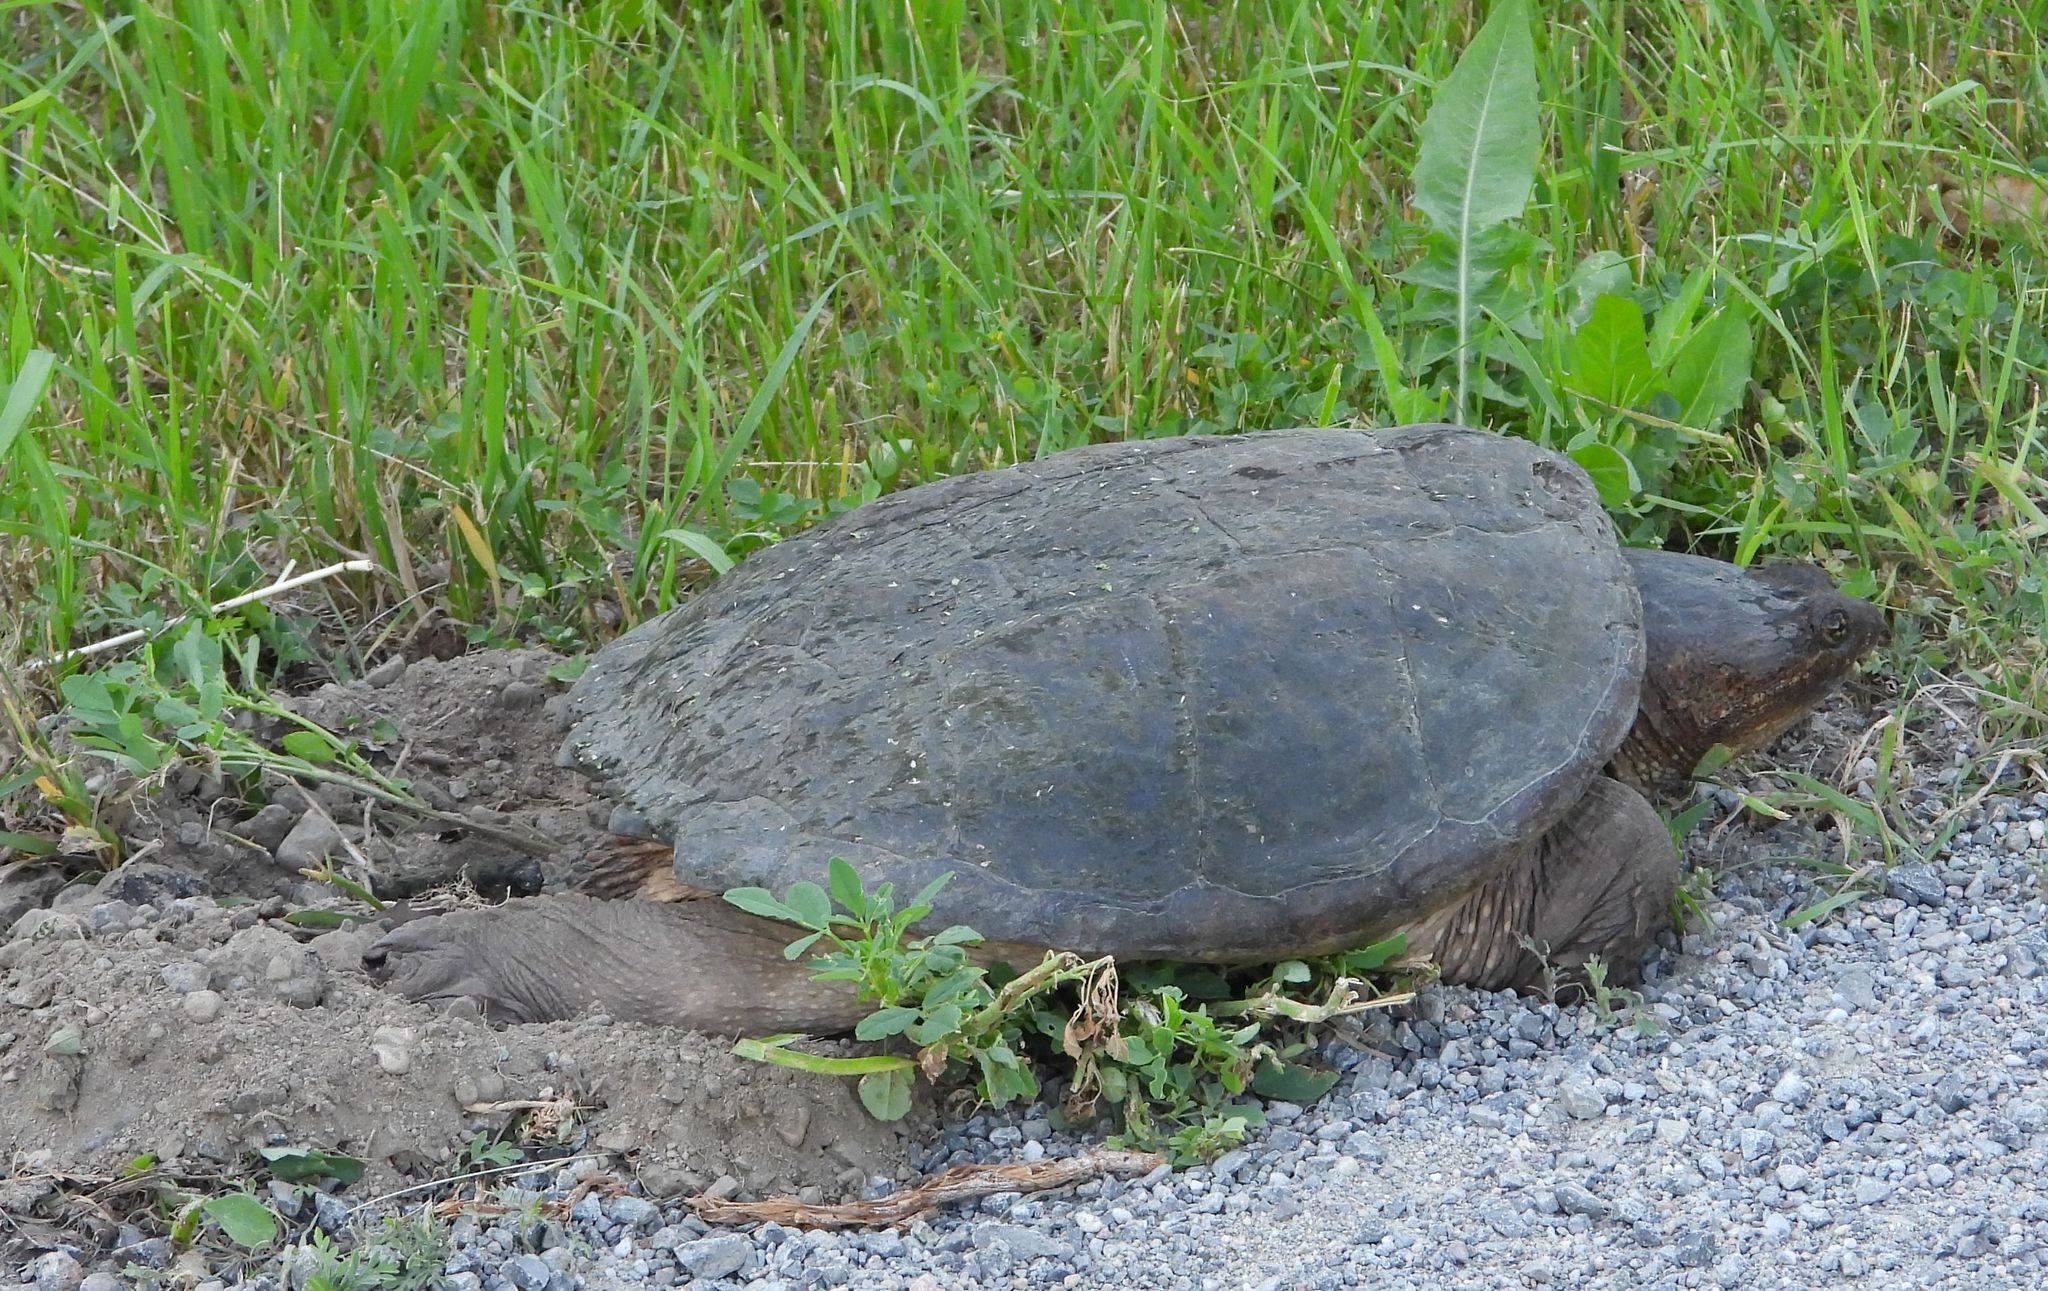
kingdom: Animalia
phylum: Chordata
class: Testudines
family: Chelydridae
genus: Chelydra
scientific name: Chelydra serpentina
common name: Common snapping turtle
